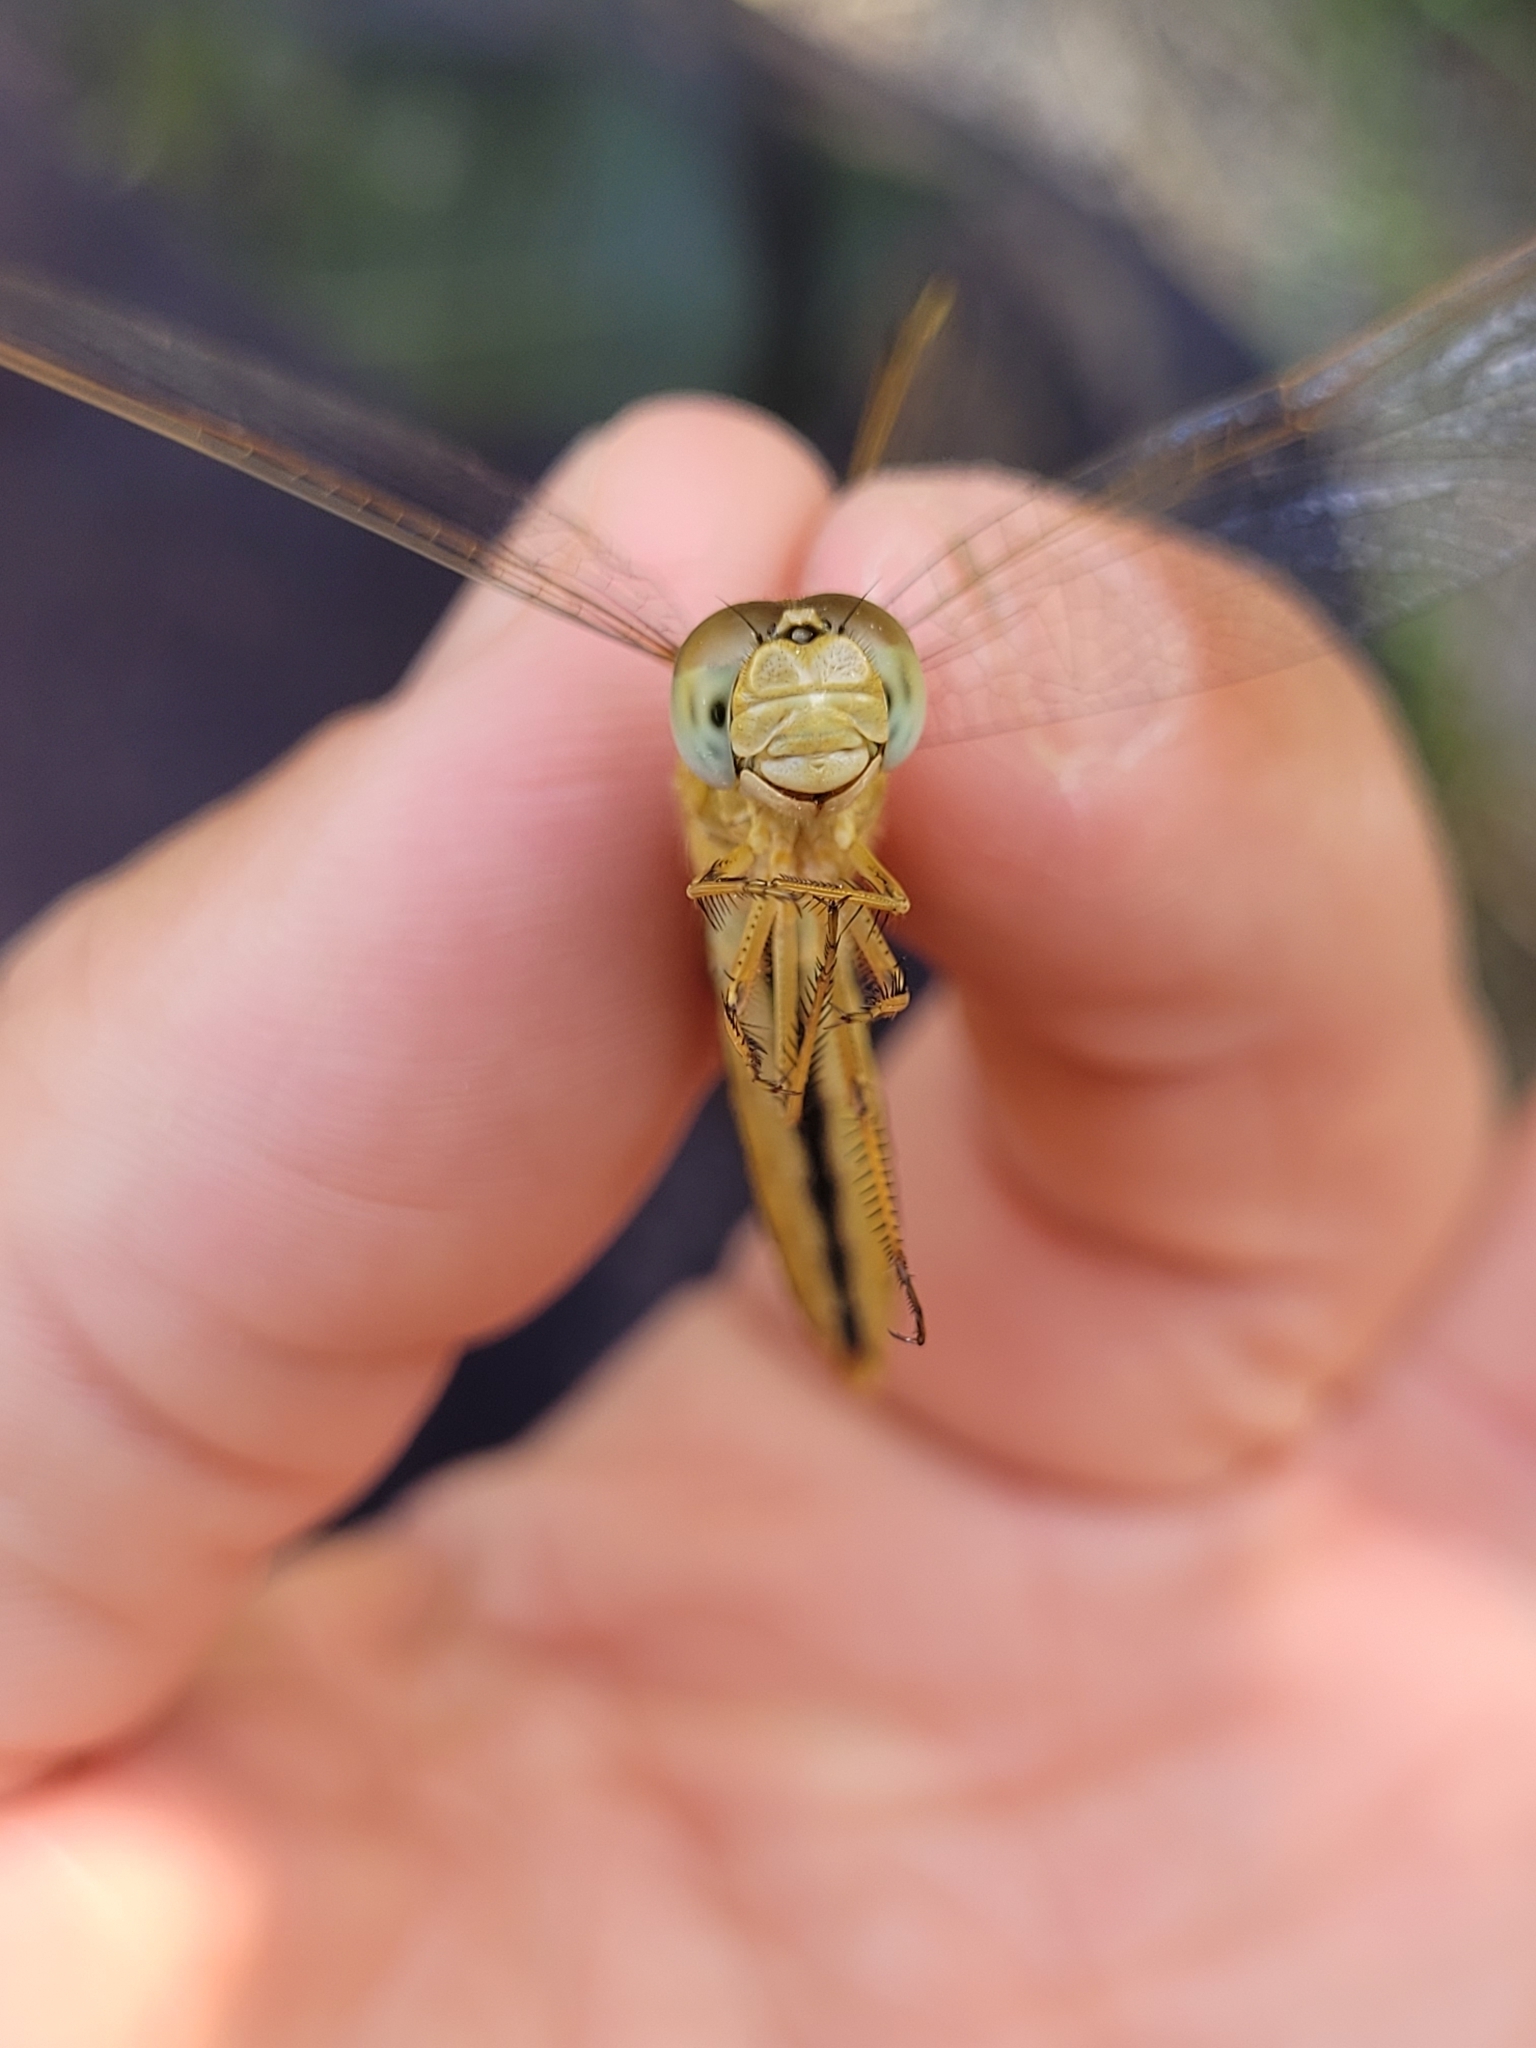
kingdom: Animalia
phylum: Arthropoda
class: Insecta
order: Odonata
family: Libellulidae
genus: Crocothemis
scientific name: Crocothemis erythraea
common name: Scarlet dragonfly
